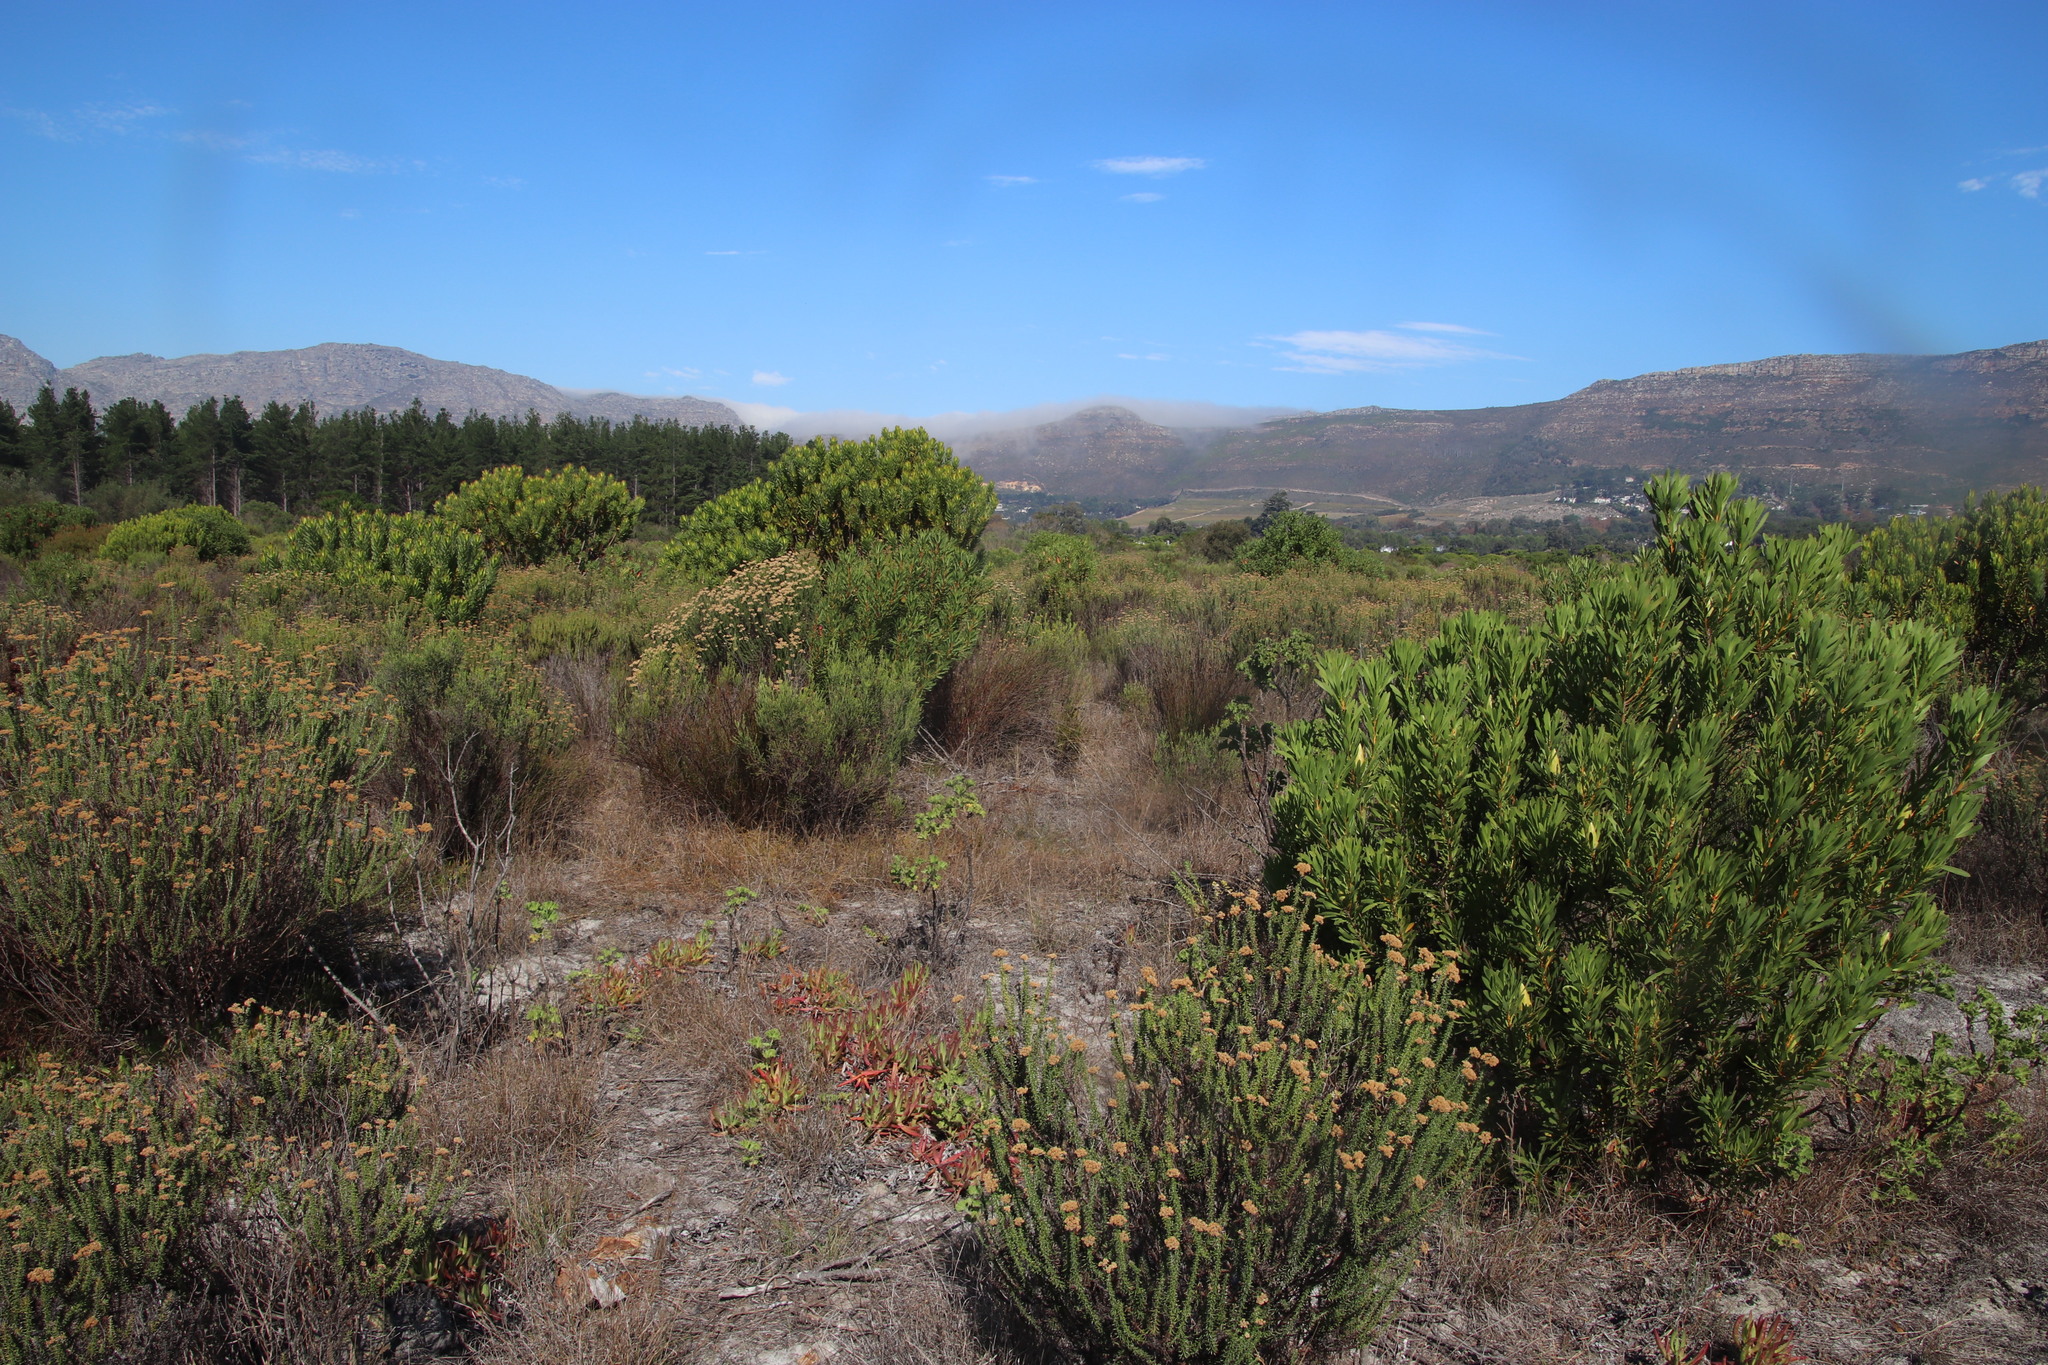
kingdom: Plantae
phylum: Tracheophyta
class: Liliopsida
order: Poales
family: Restionaceae
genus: Restio
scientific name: Restio bifurcus
